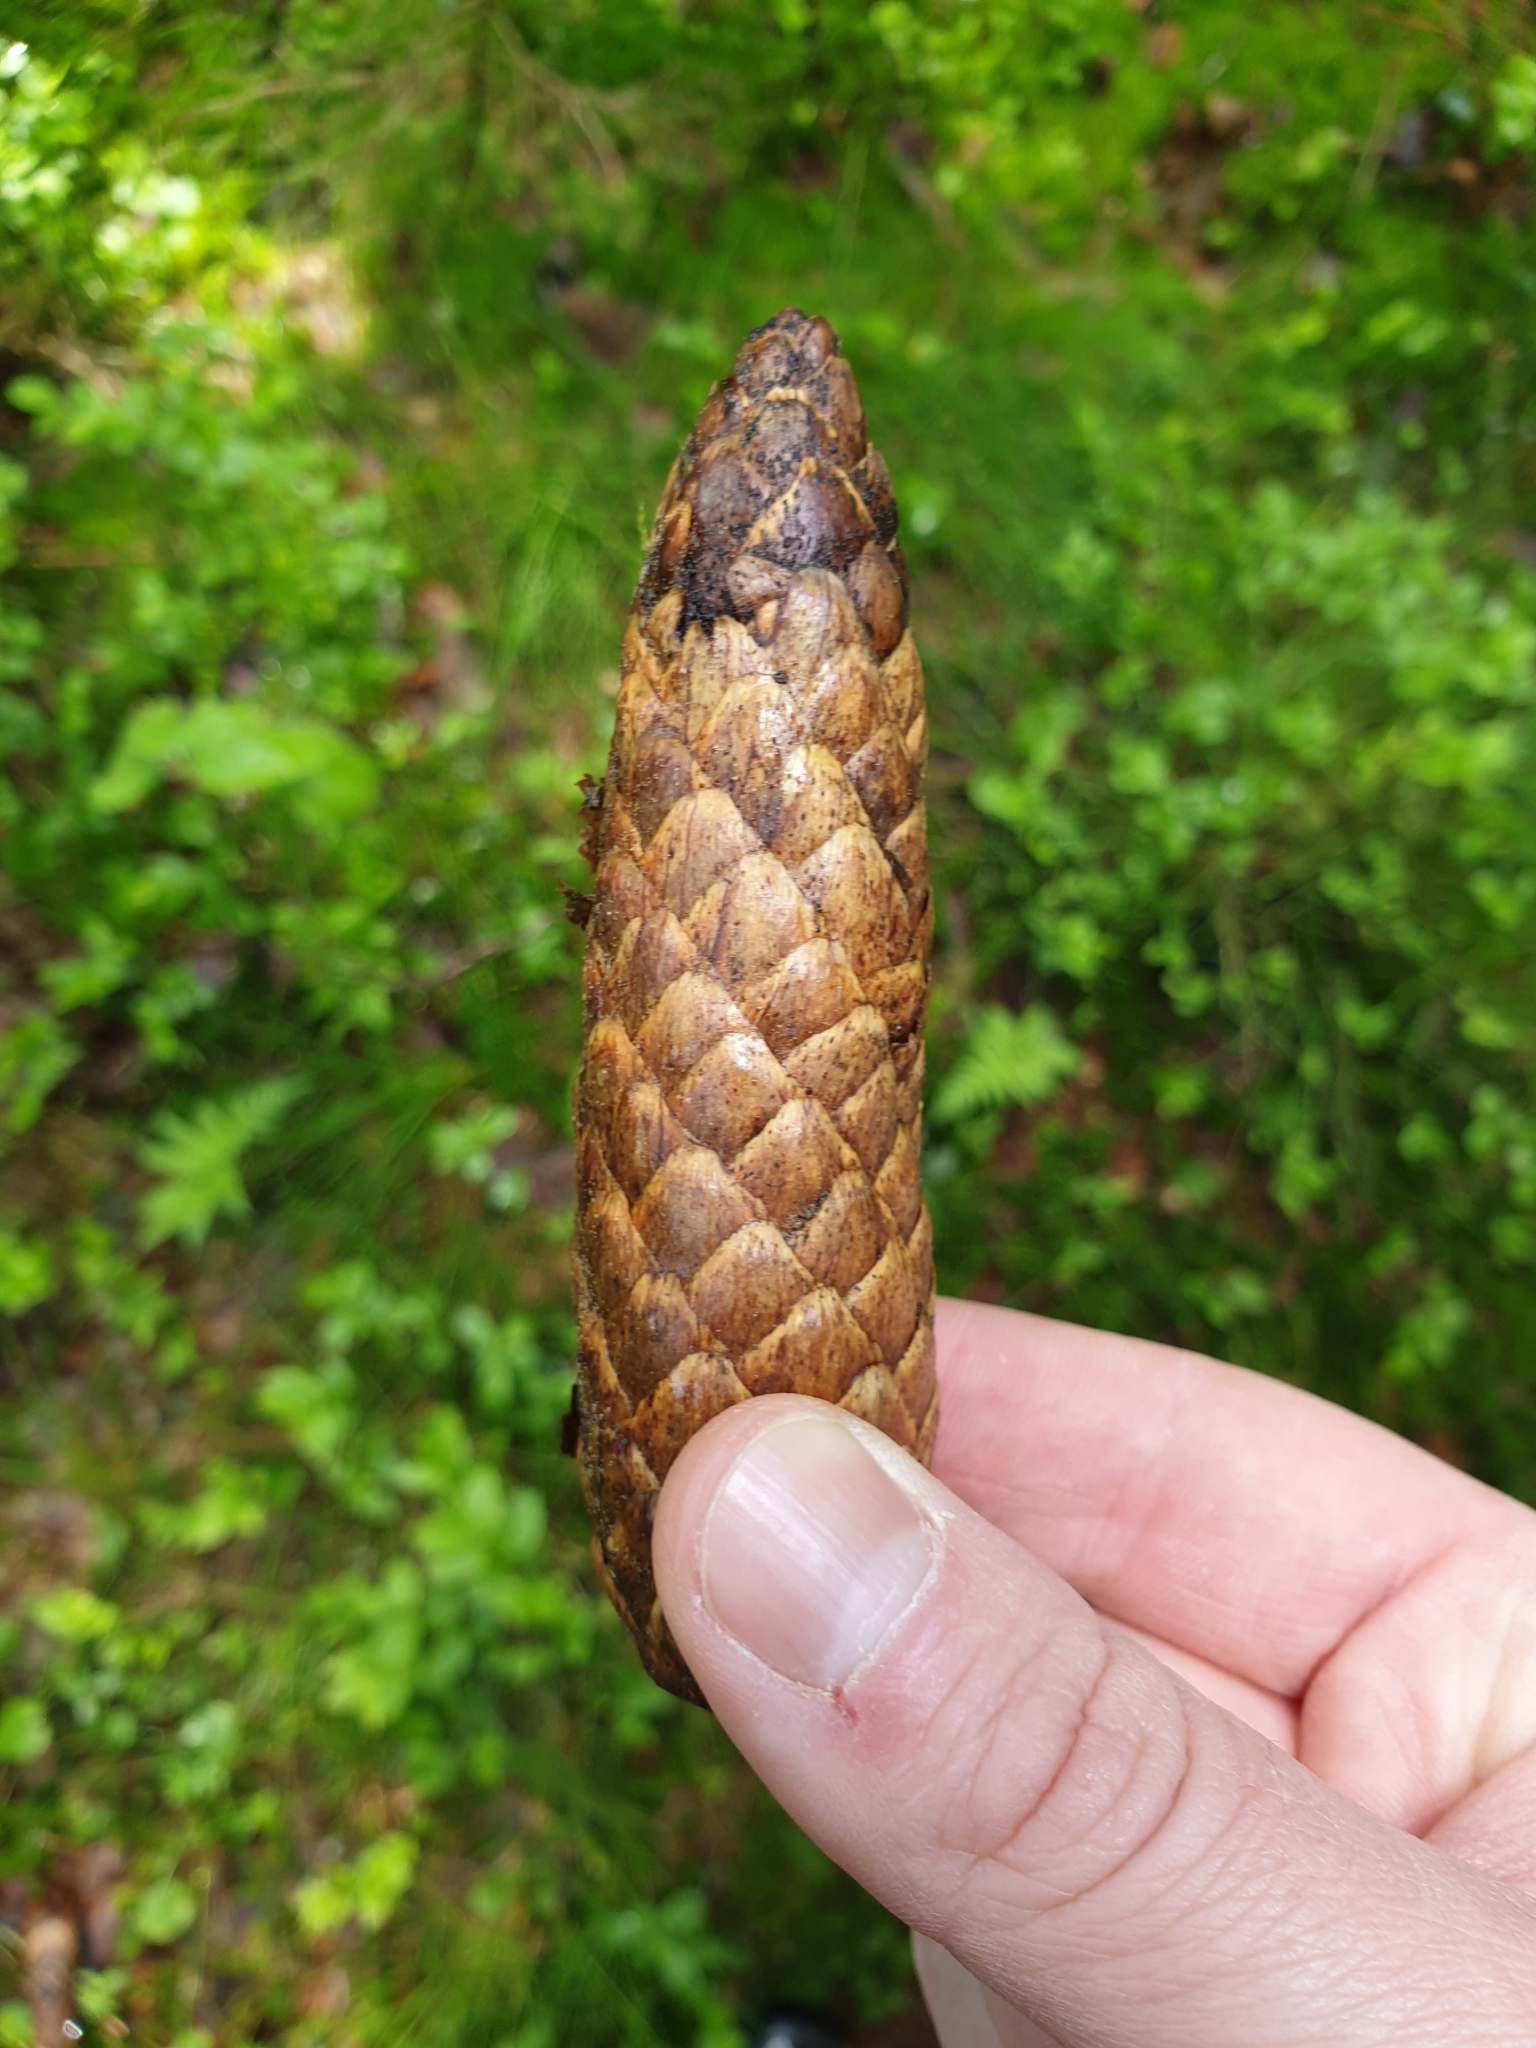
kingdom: Plantae
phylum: Tracheophyta
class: Pinopsida
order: Pinales
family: Pinaceae
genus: Picea
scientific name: Picea abies
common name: Norway spruce
